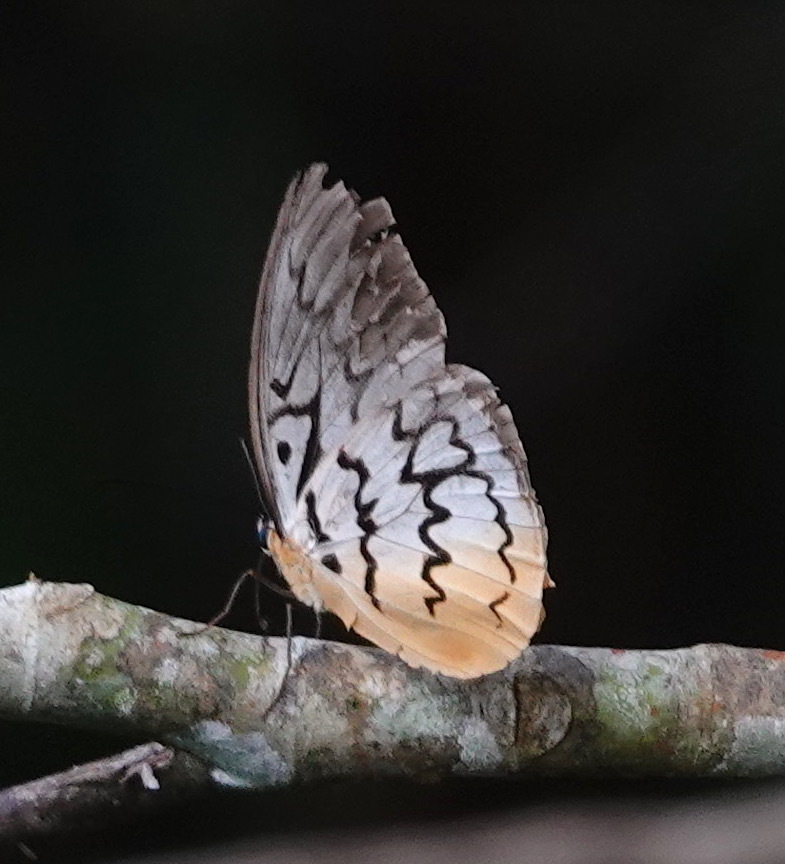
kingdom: Animalia
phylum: Arthropoda
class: Insecta
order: Lepidoptera
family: Nymphalidae
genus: Faunis
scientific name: Faunis Melanocyma faunula
